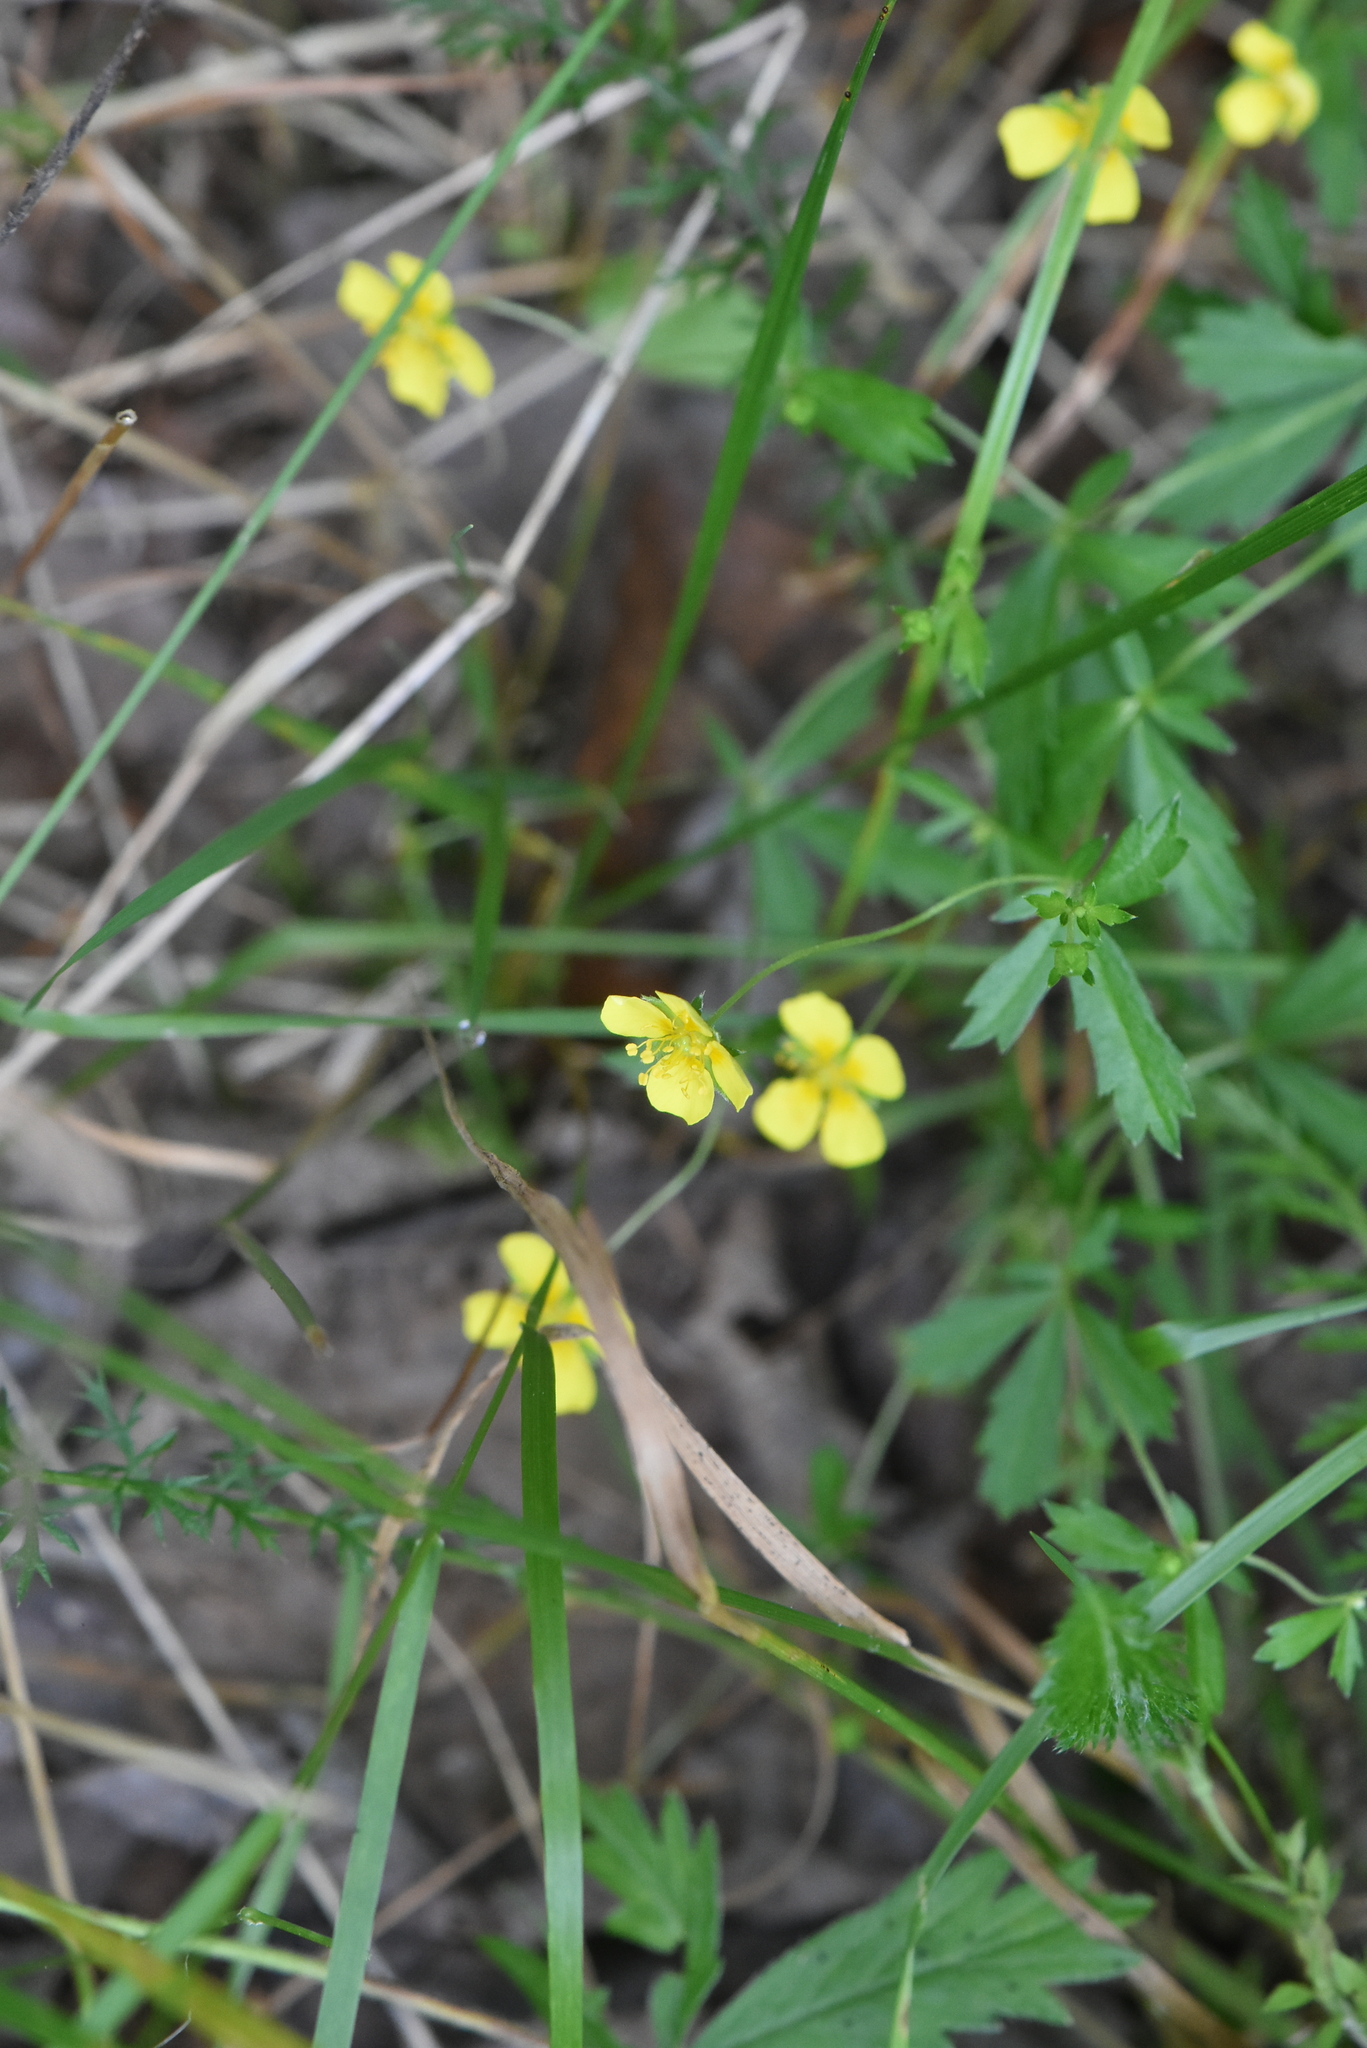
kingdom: Plantae
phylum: Tracheophyta
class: Magnoliopsida
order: Rosales
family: Rosaceae
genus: Potentilla
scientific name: Potentilla erecta
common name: Tormentil
